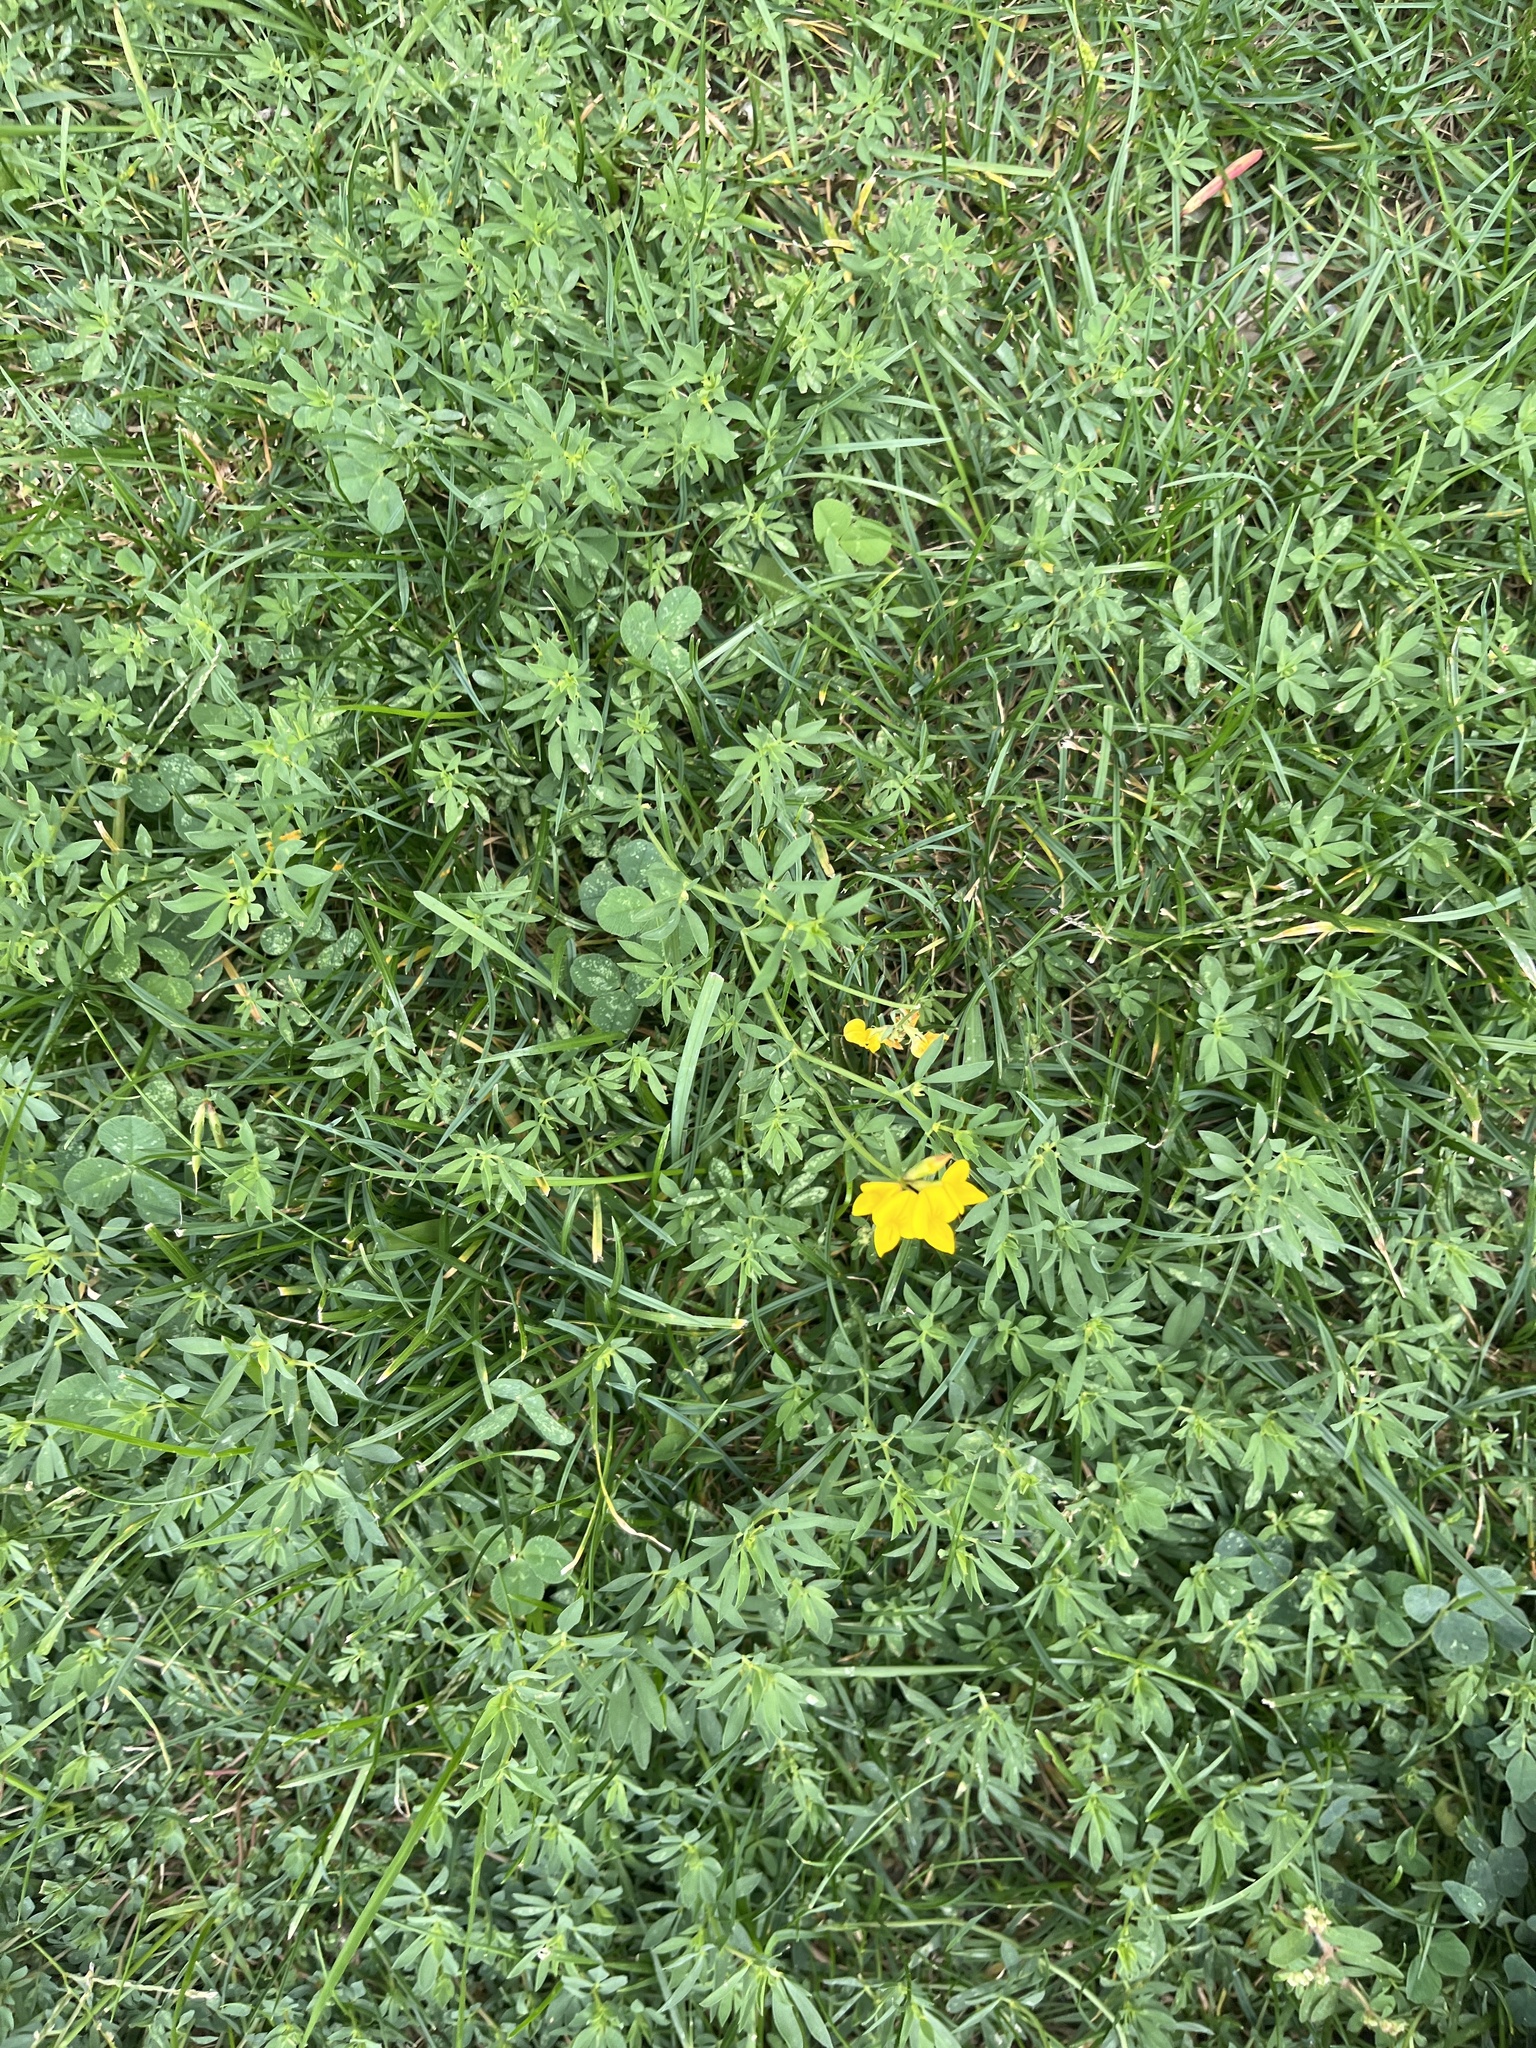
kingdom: Plantae
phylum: Tracheophyta
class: Magnoliopsida
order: Fabales
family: Fabaceae
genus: Lotus
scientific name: Lotus corniculatus
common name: Common bird's-foot-trefoil
